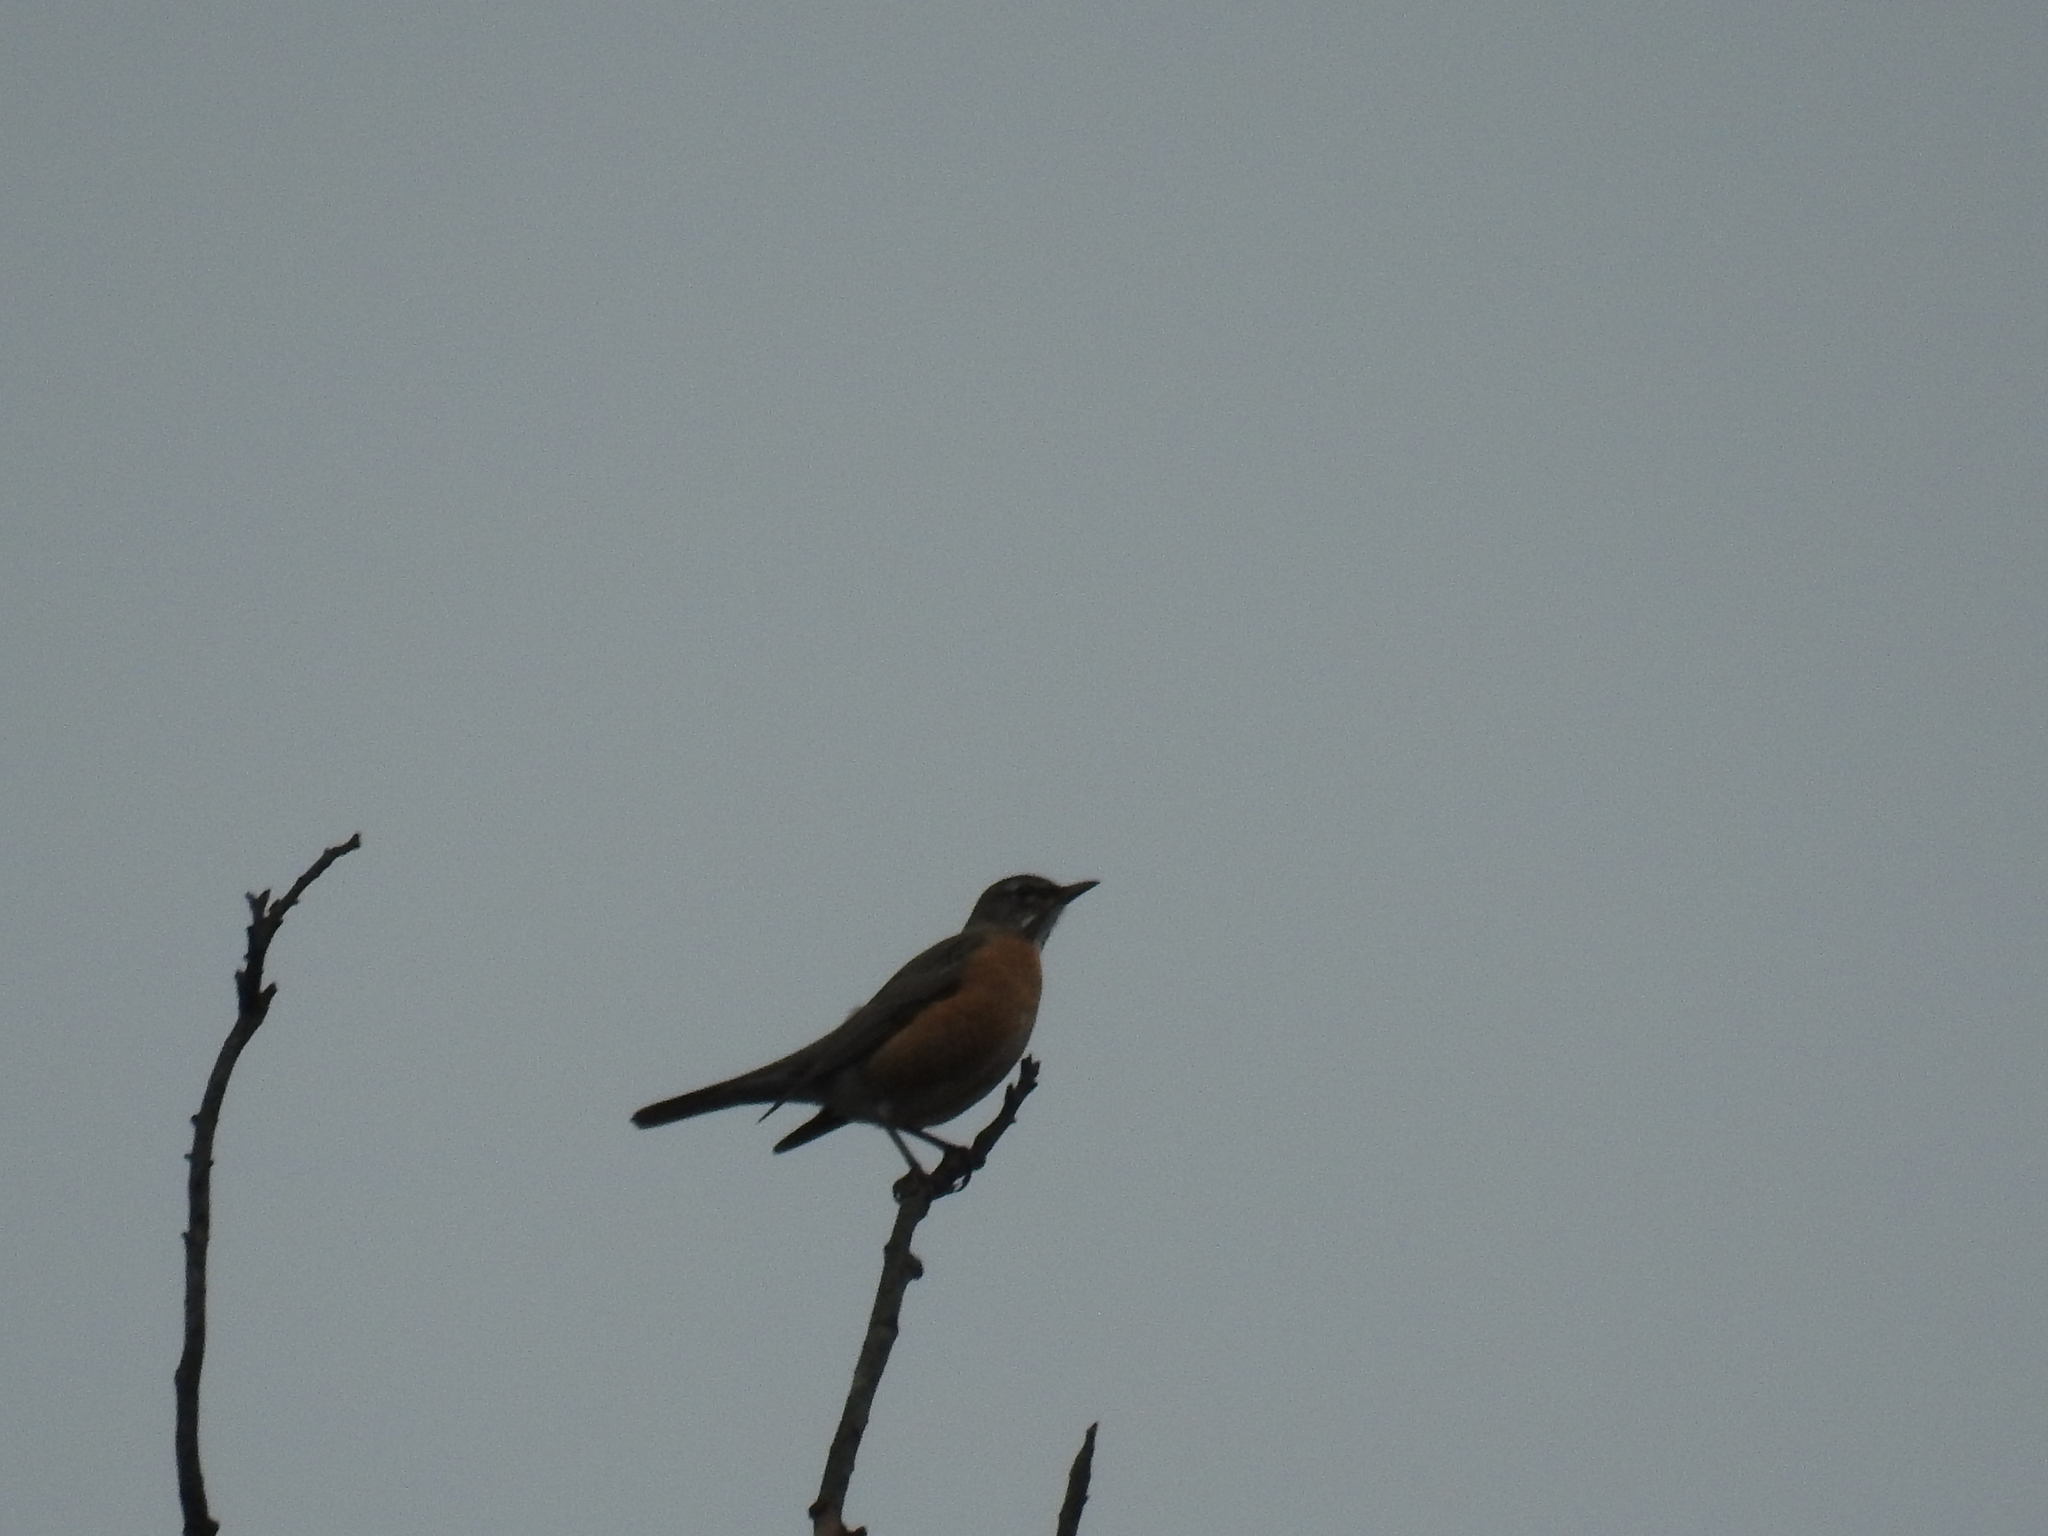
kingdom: Animalia
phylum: Chordata
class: Aves
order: Passeriformes
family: Turdidae
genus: Turdus
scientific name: Turdus migratorius
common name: American robin
